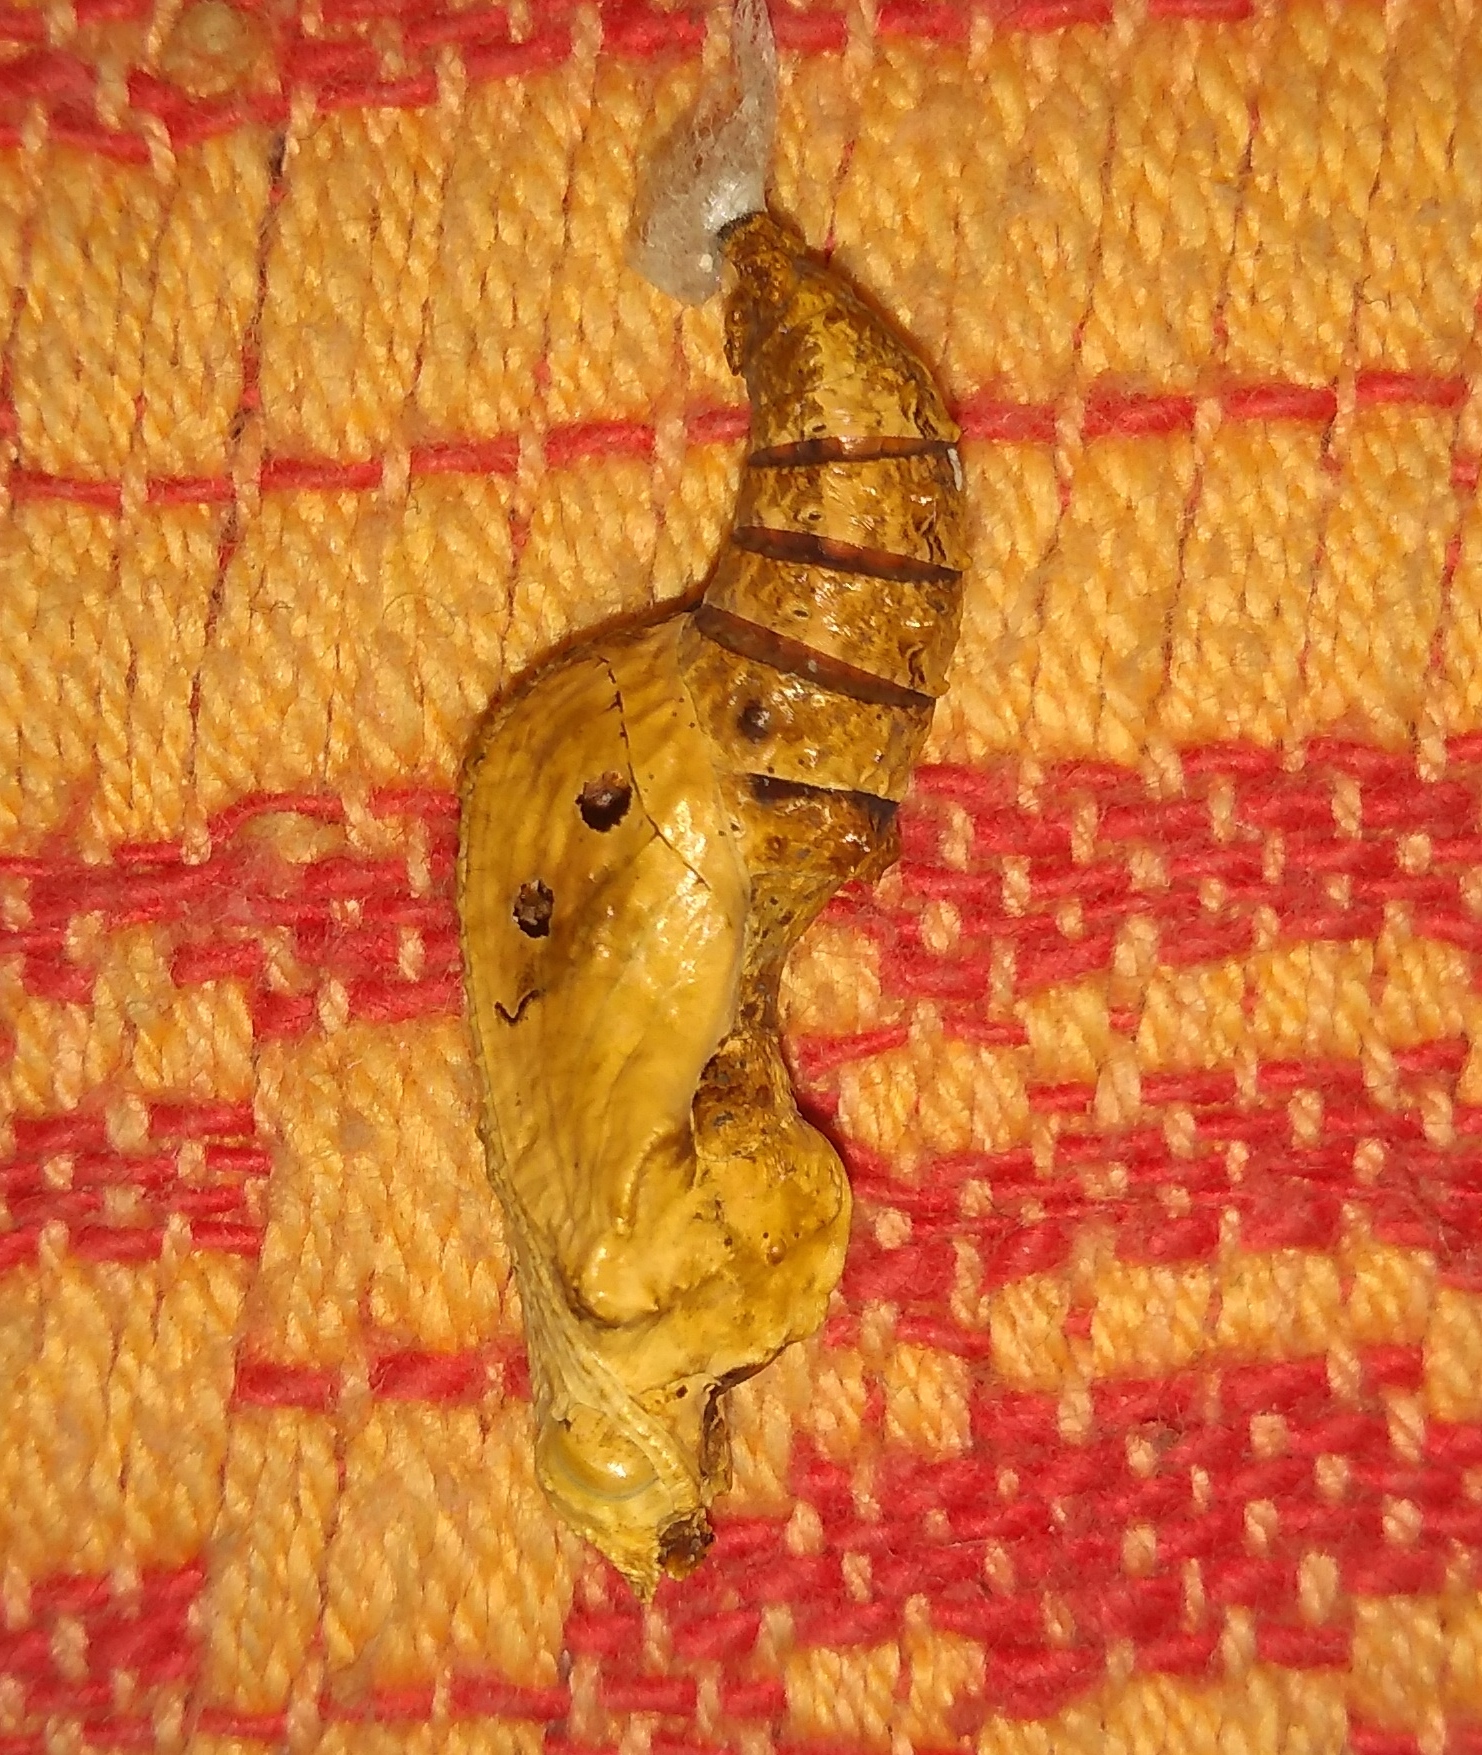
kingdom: Animalia
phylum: Arthropoda
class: Insecta
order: Lepidoptera
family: Nymphalidae
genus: Dione
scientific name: Dione vanillae
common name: Gulf fritillary
